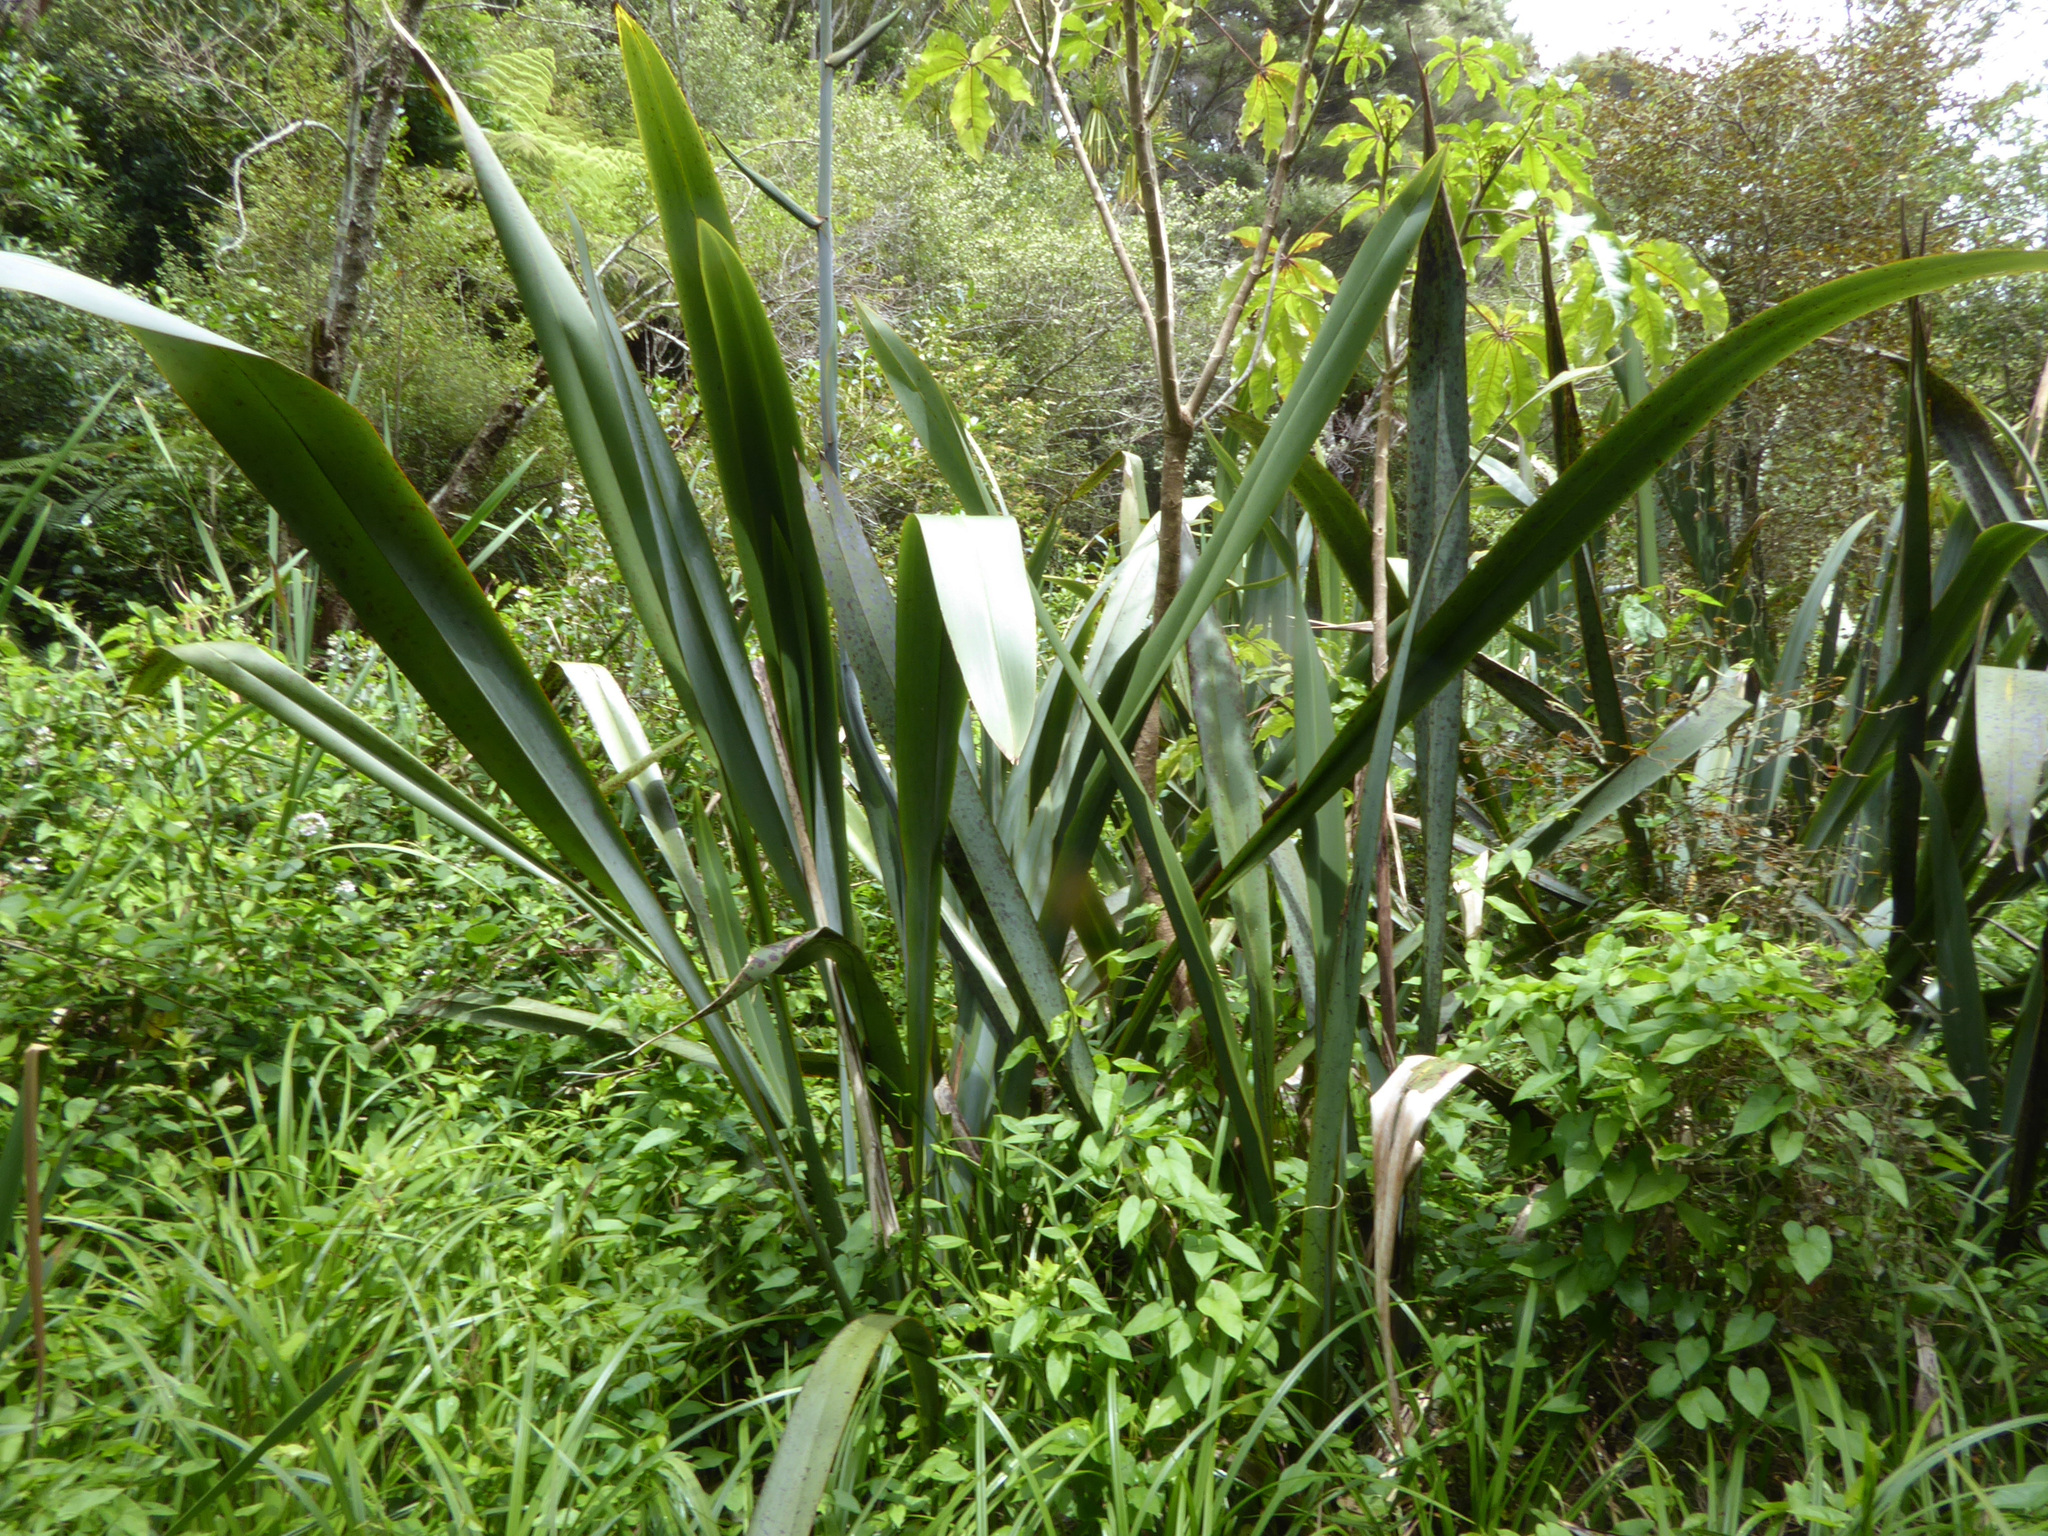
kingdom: Plantae
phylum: Tracheophyta
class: Liliopsida
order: Asparagales
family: Asphodelaceae
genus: Phormium
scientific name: Phormium tenax
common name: New zealand flax
